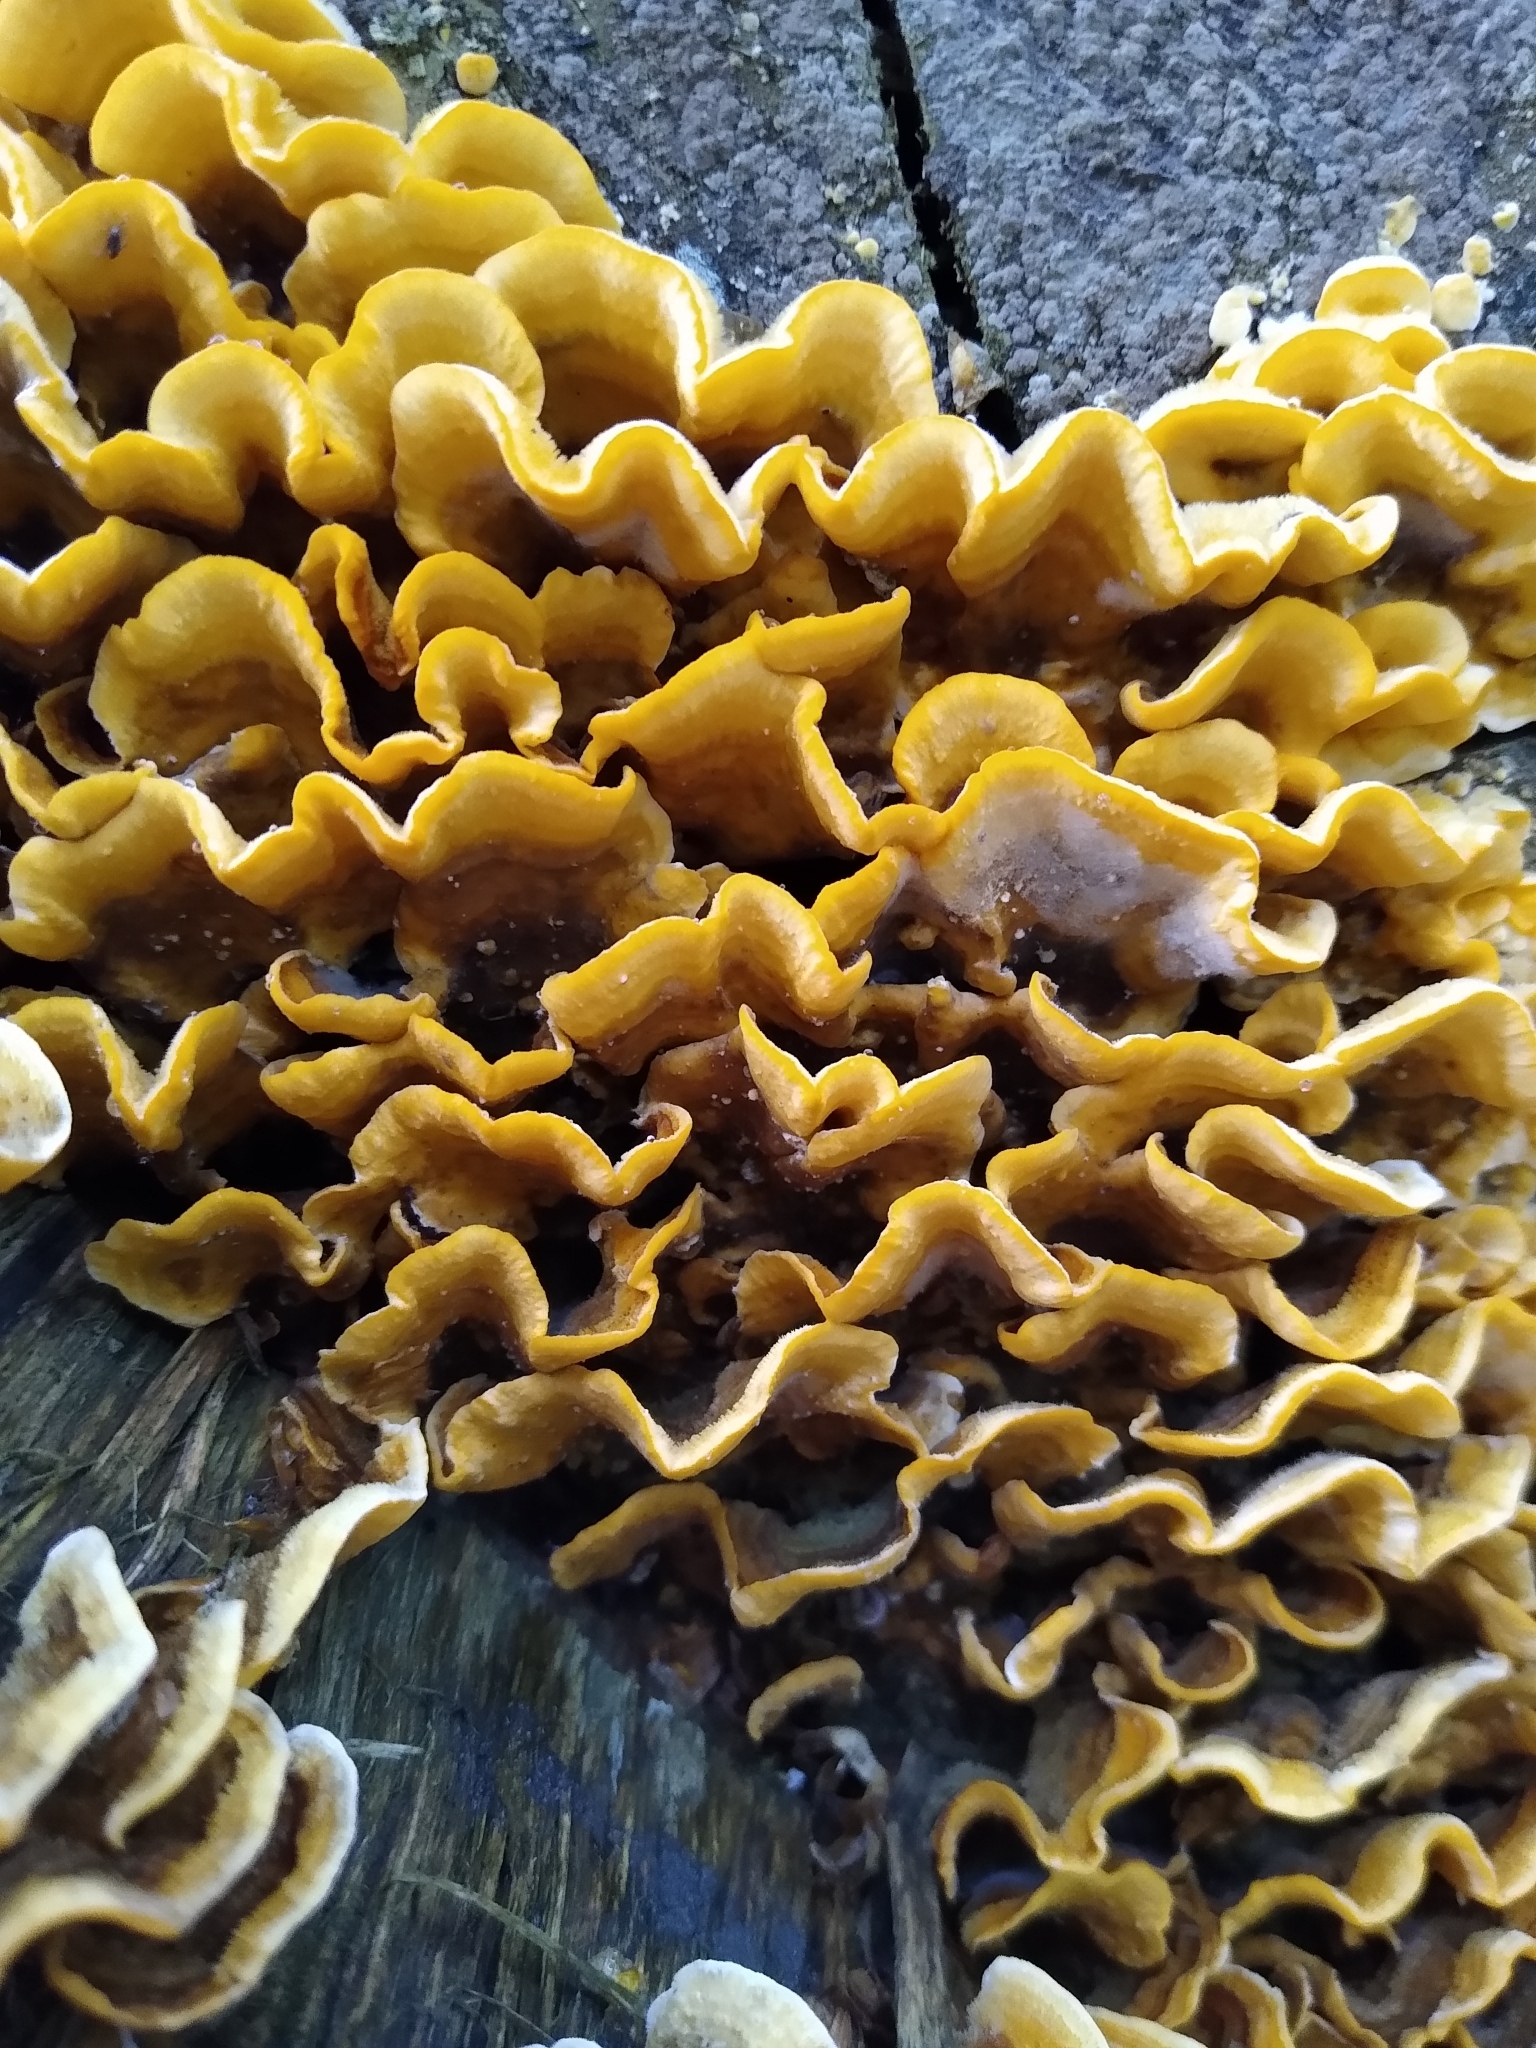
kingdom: Fungi
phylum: Basidiomycota
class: Agaricomycetes
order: Russulales
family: Stereaceae
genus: Stereum
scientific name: Stereum hirsutum
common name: Hairy curtain crust
